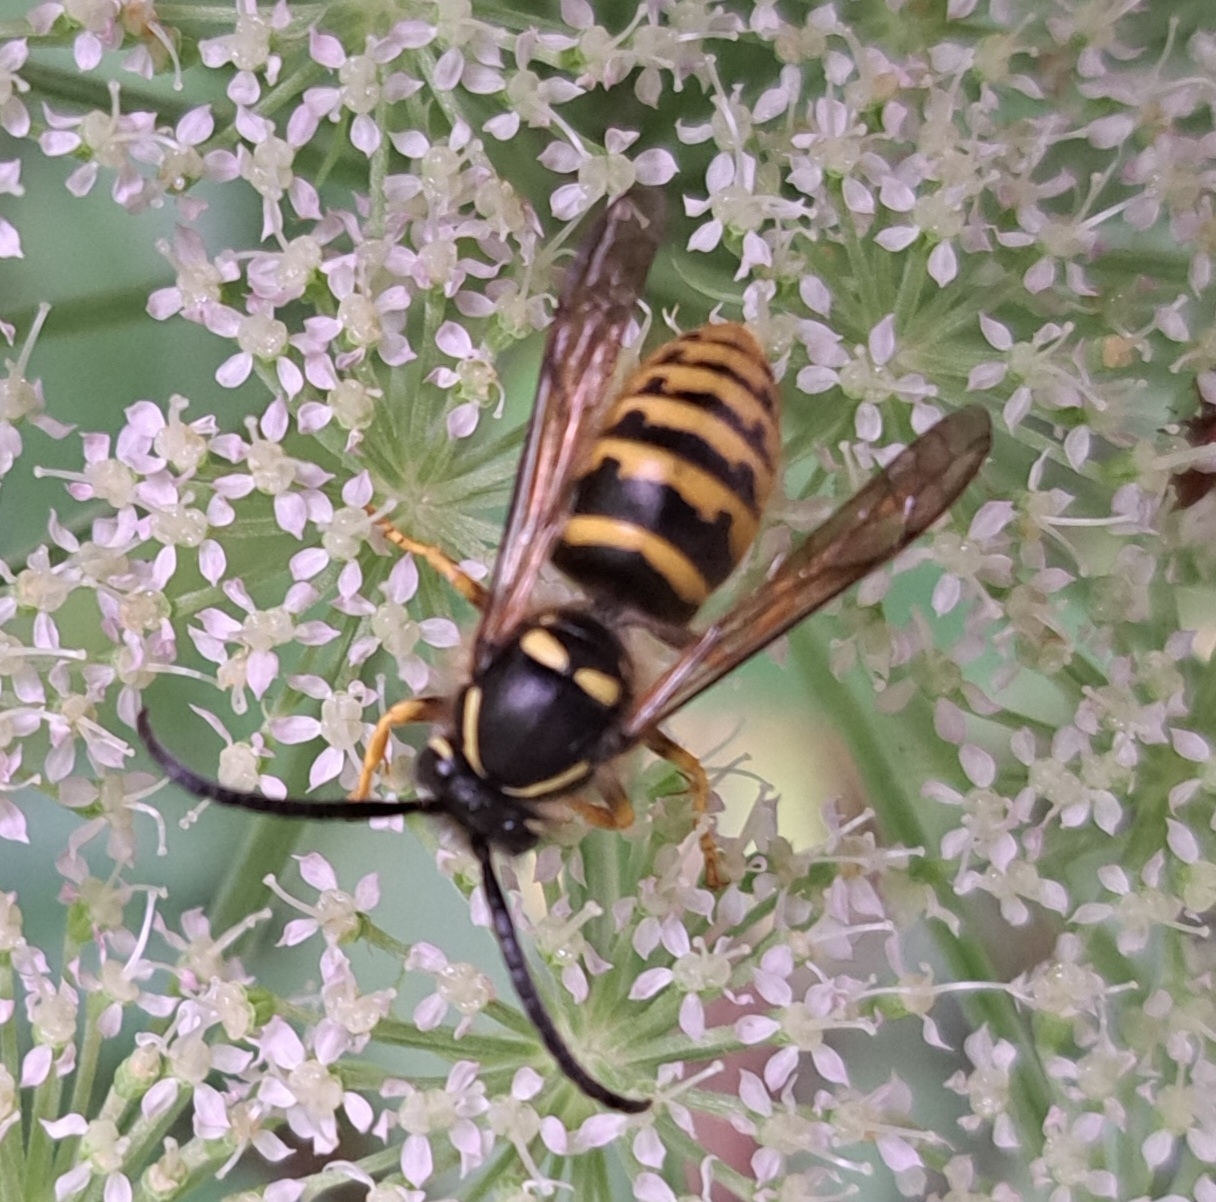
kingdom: Animalia
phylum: Arthropoda
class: Insecta
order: Hymenoptera
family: Vespidae
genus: Dolichovespula
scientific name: Dolichovespula sylvestris
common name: Tree wasp
